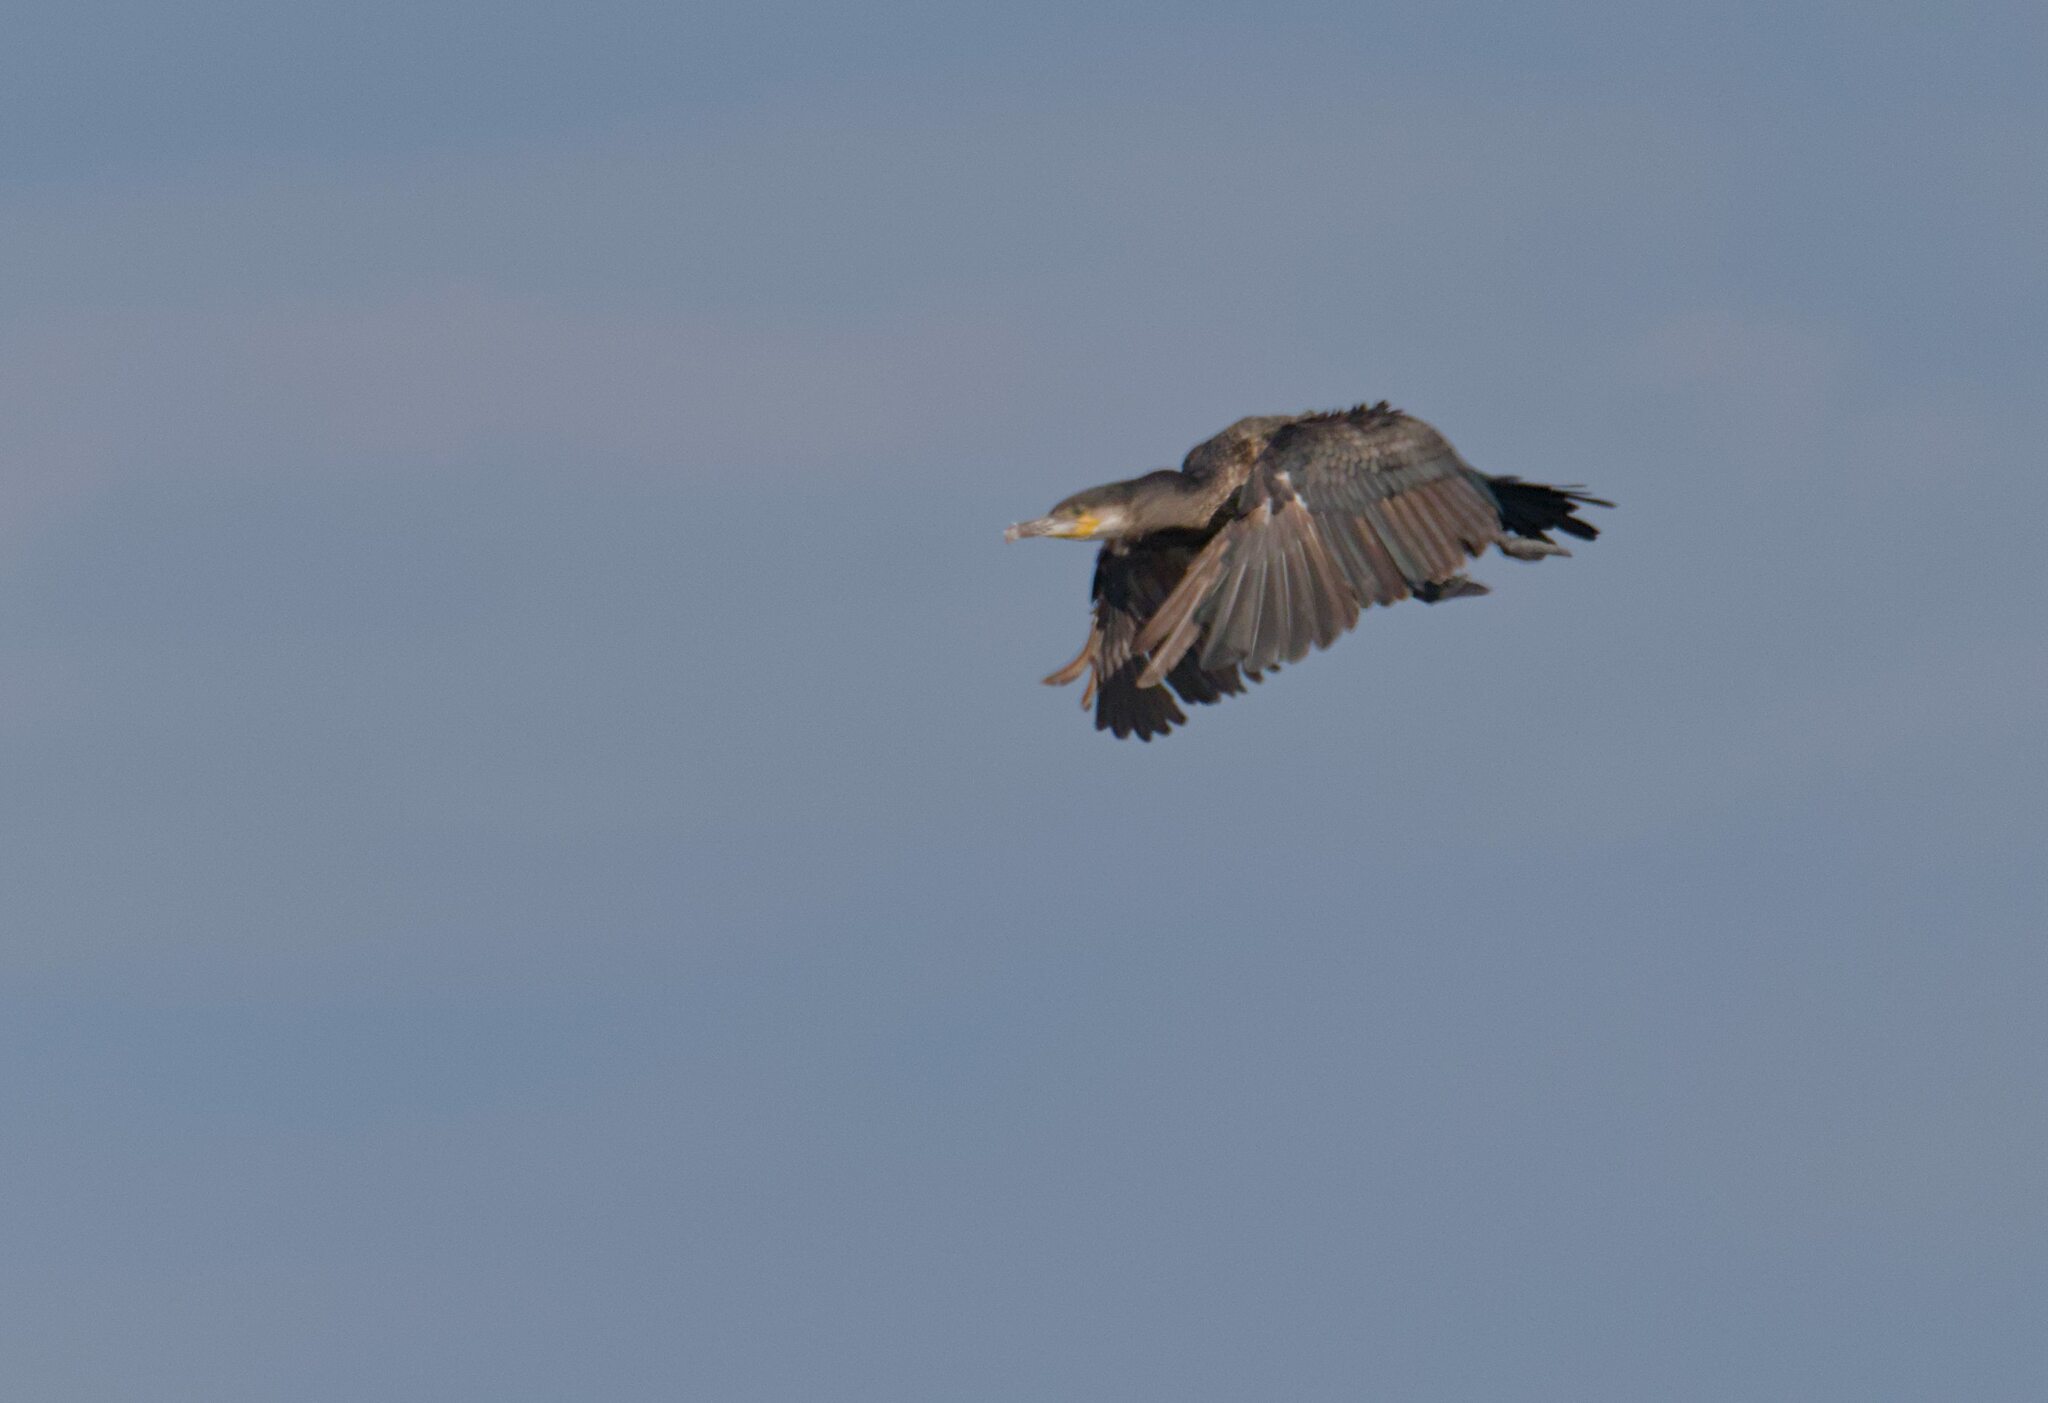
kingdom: Animalia
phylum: Chordata
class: Aves
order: Suliformes
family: Phalacrocoracidae
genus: Phalacrocorax
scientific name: Phalacrocorax carbo
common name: Great cormorant
